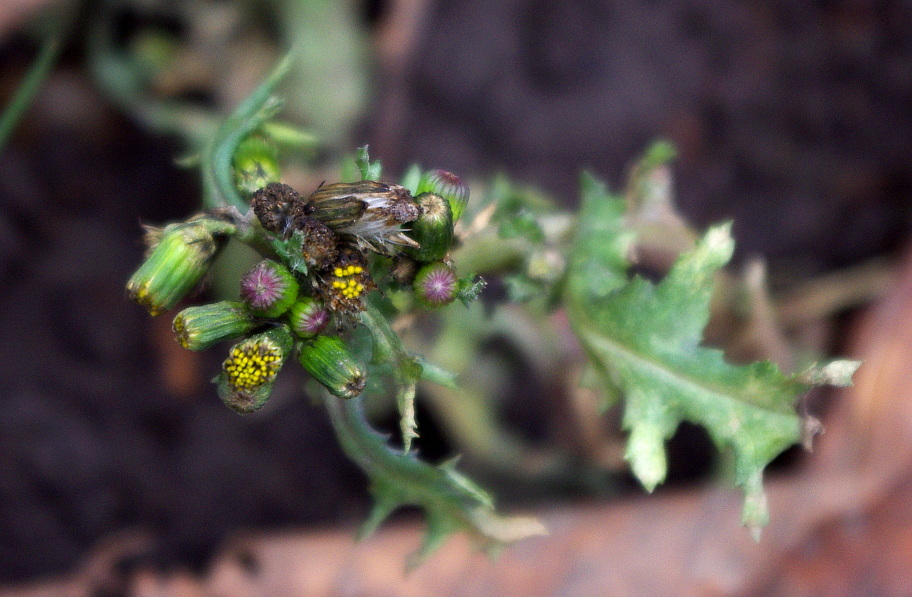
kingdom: Plantae
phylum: Tracheophyta
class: Magnoliopsida
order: Asterales
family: Asteraceae
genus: Senecio
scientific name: Senecio vulgaris
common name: Old-man-in-the-spring
